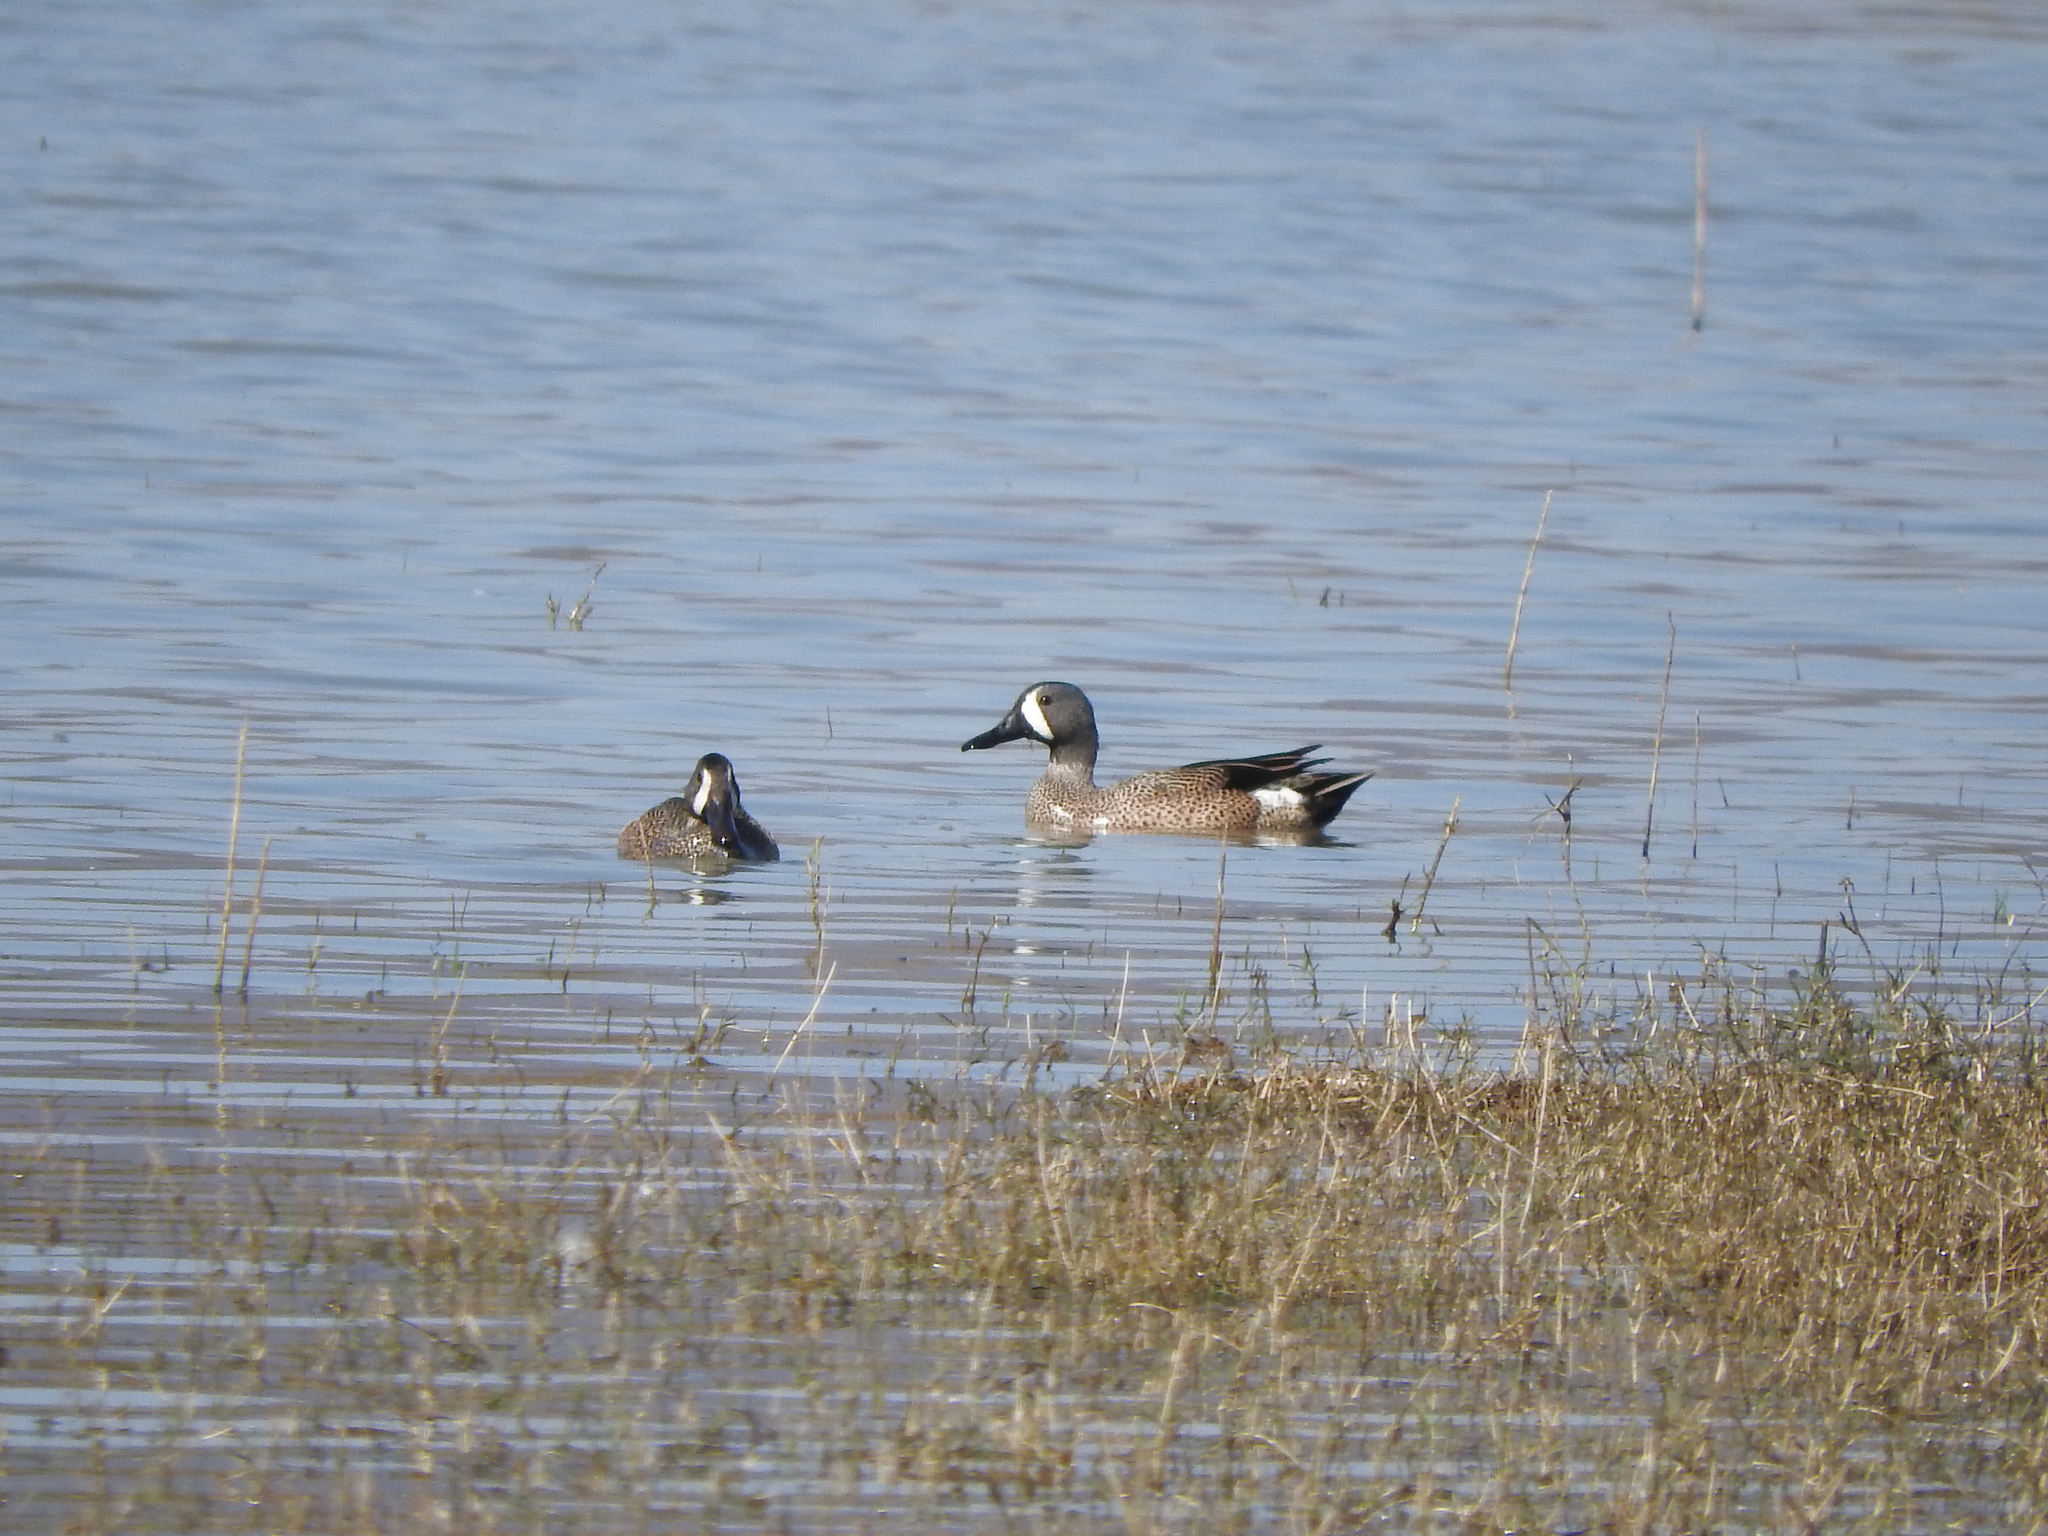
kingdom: Animalia
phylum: Chordata
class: Aves
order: Anseriformes
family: Anatidae
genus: Spatula
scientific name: Spatula discors
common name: Blue-winged teal
